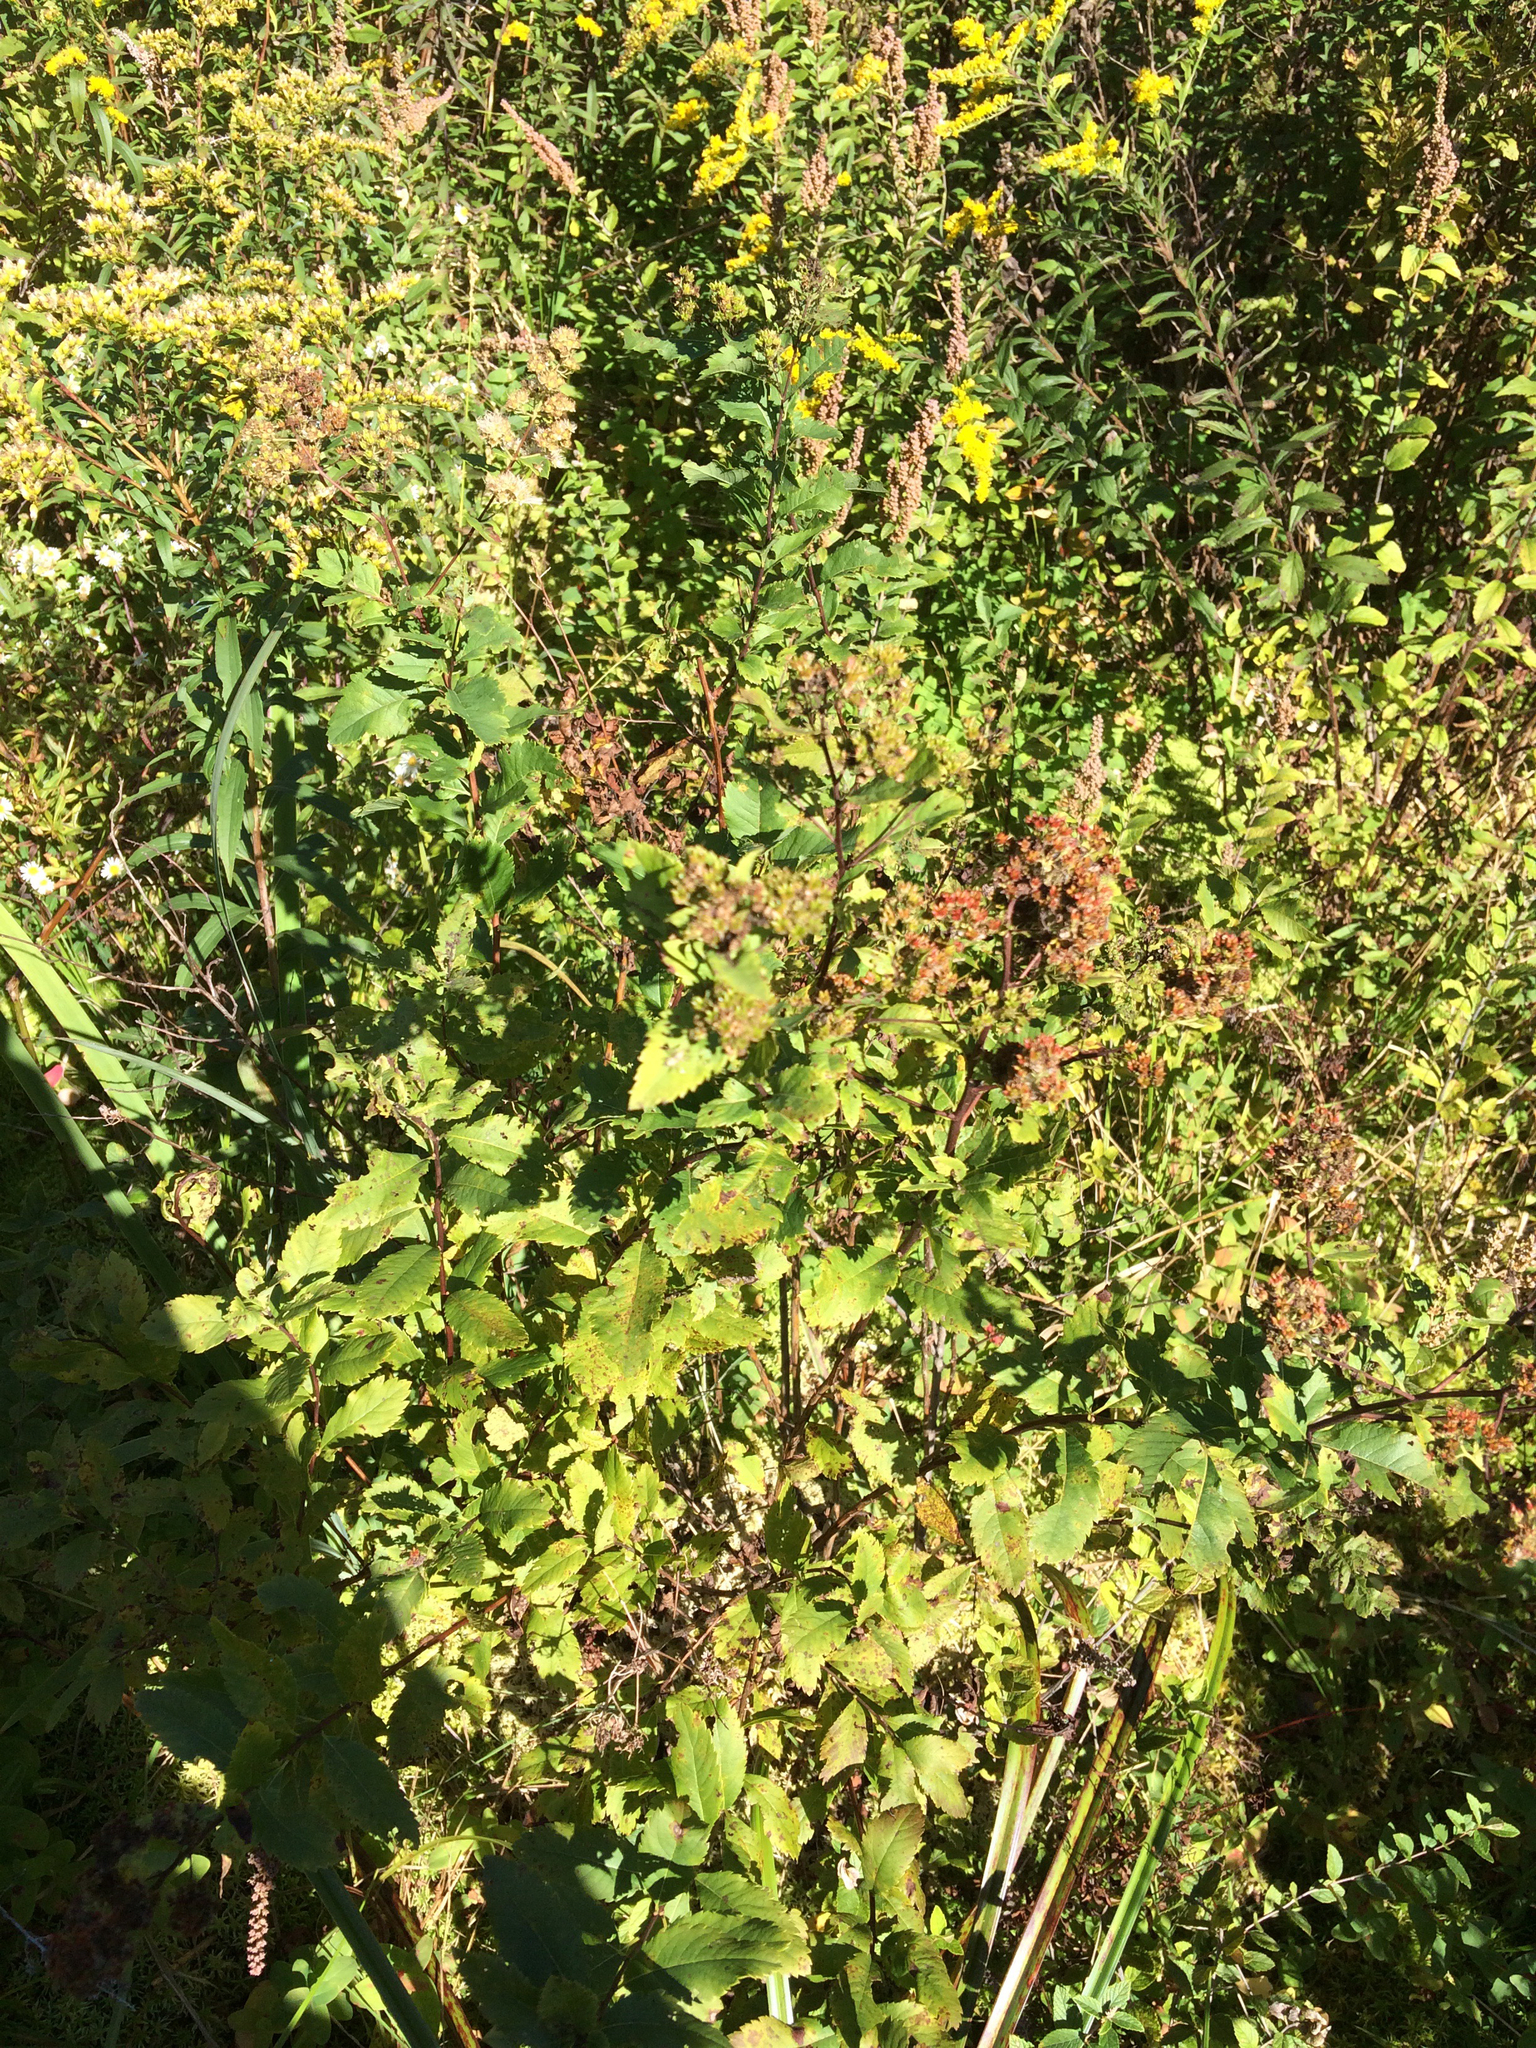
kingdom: Plantae
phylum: Tracheophyta
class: Magnoliopsida
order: Rosales
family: Rosaceae
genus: Spiraea
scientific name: Spiraea alba
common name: Pale bridewort
